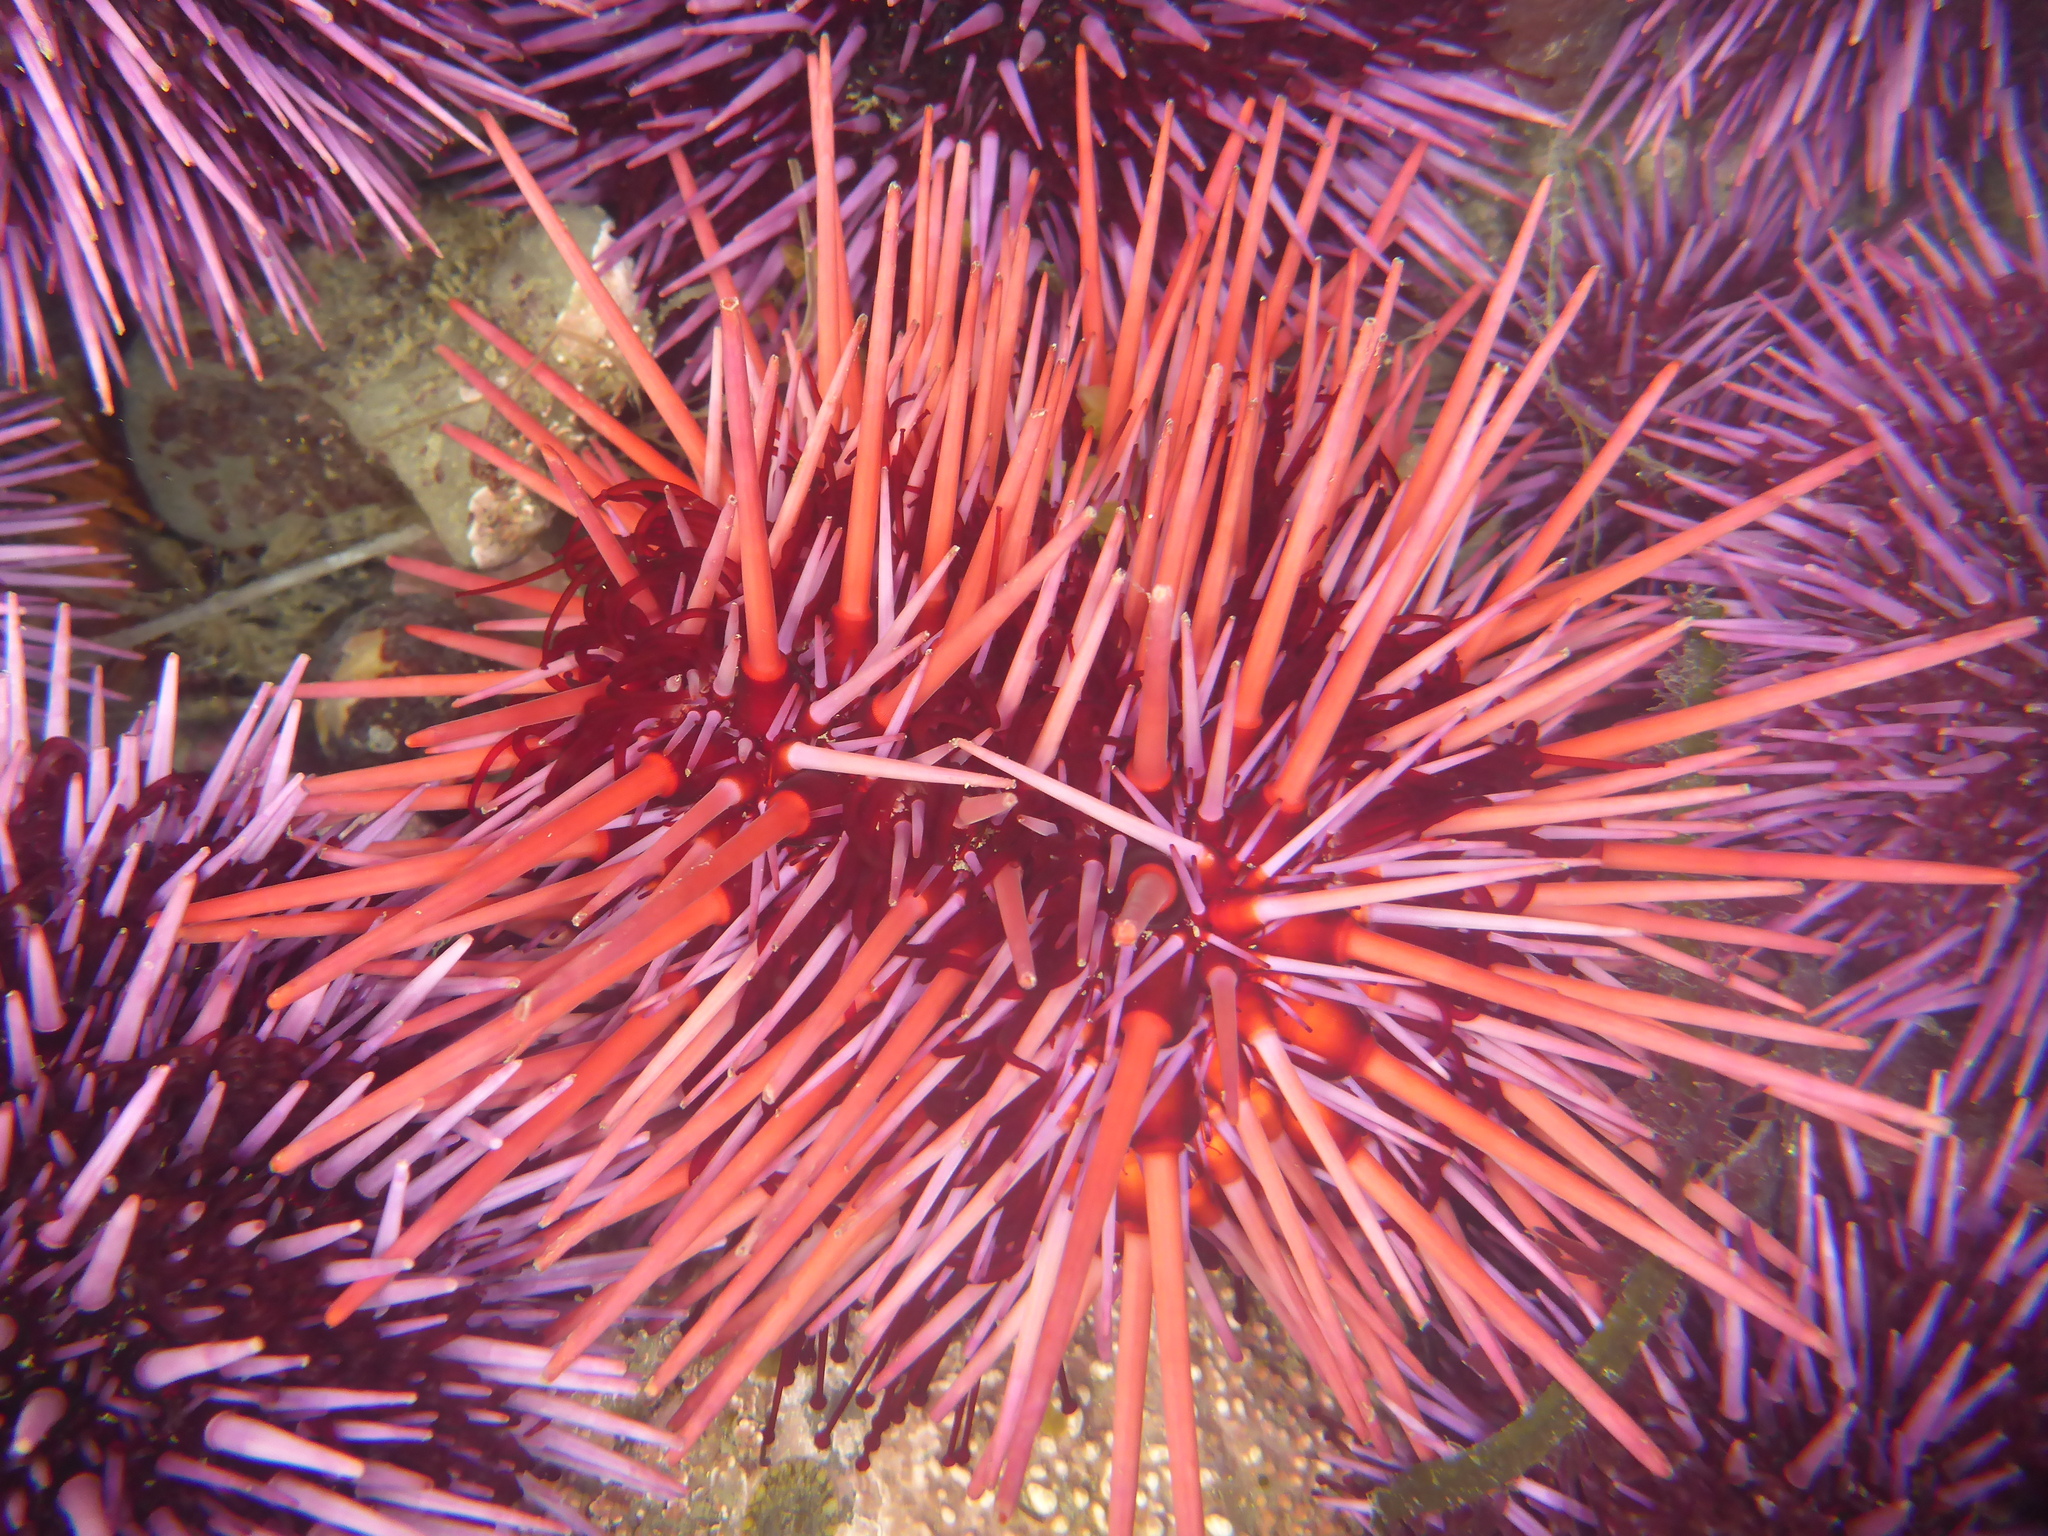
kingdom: Animalia
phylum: Echinodermata
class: Echinoidea
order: Camarodonta
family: Strongylocentrotidae
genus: Mesocentrotus
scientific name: Mesocentrotus franciscanus
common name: Red sea urchin
